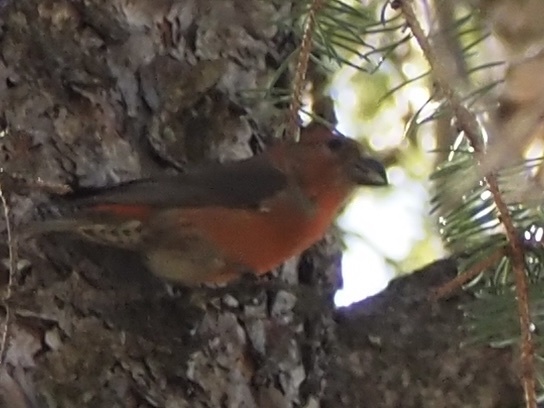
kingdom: Animalia
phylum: Chordata
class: Aves
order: Passeriformes
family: Fringillidae
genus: Loxia
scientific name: Loxia curvirostra
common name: Red crossbill
